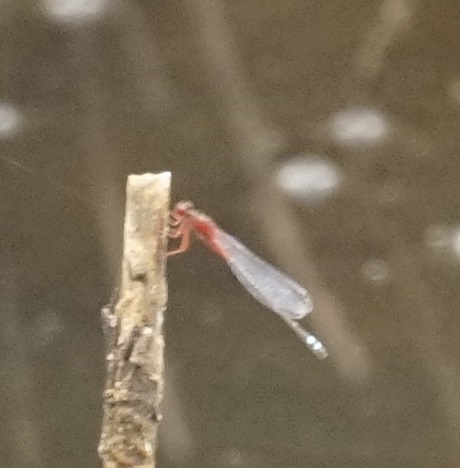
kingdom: Animalia
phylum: Arthropoda
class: Insecta
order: Odonata
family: Coenagrionidae
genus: Xanthagrion
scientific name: Xanthagrion erythroneurum
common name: Red and blue damsel
